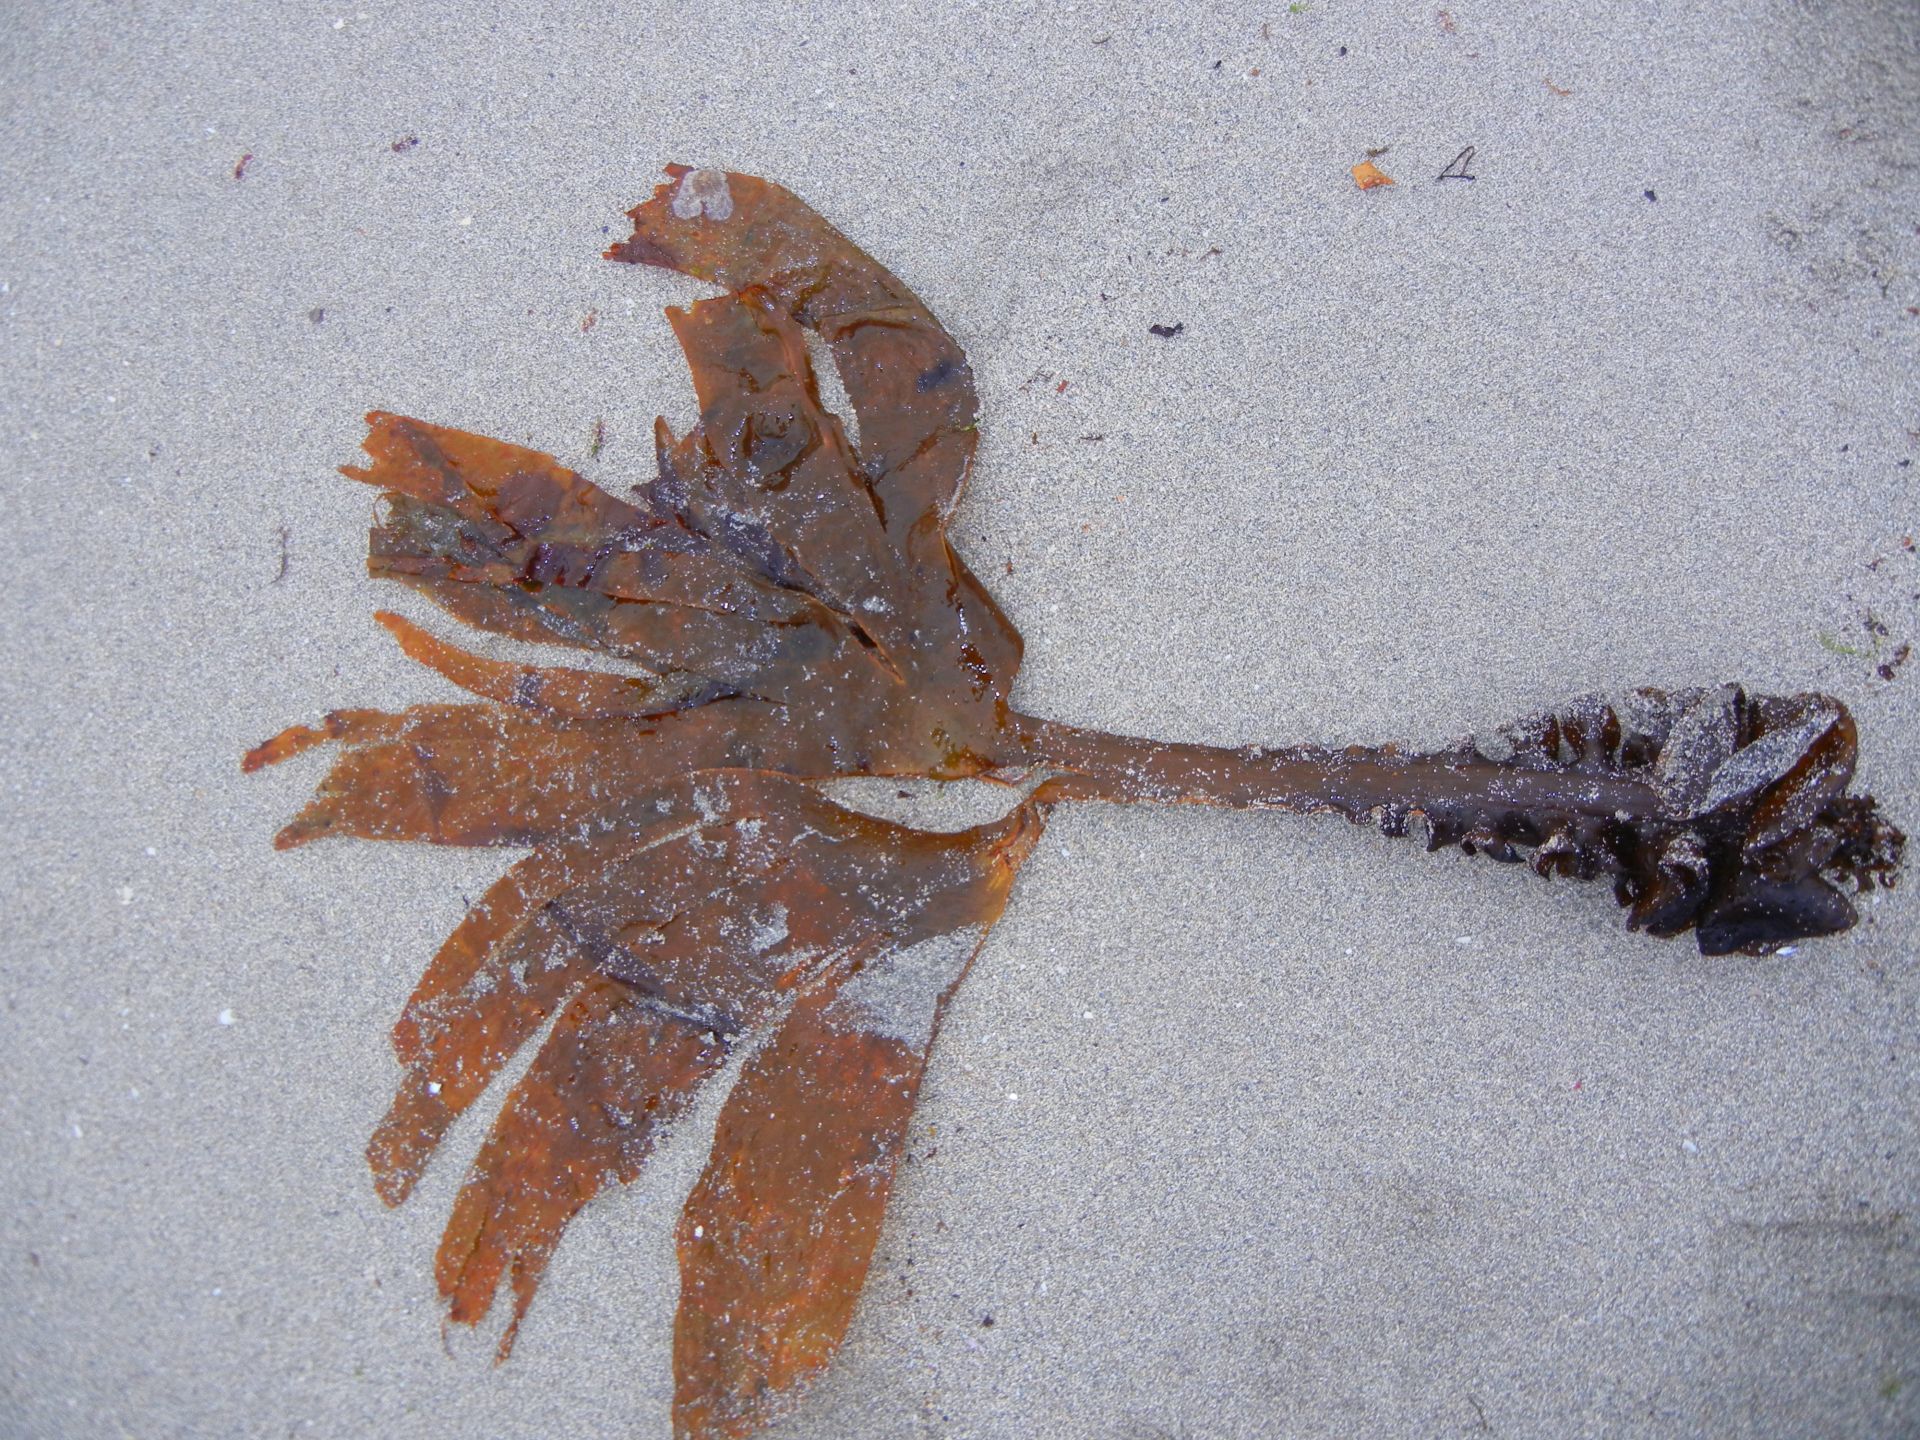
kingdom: Chromista
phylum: Ochrophyta
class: Phaeophyceae
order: Tilopteridales
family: Phyllariaceae
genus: Saccorhiza
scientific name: Saccorhiza polyschides
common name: Furbelows
